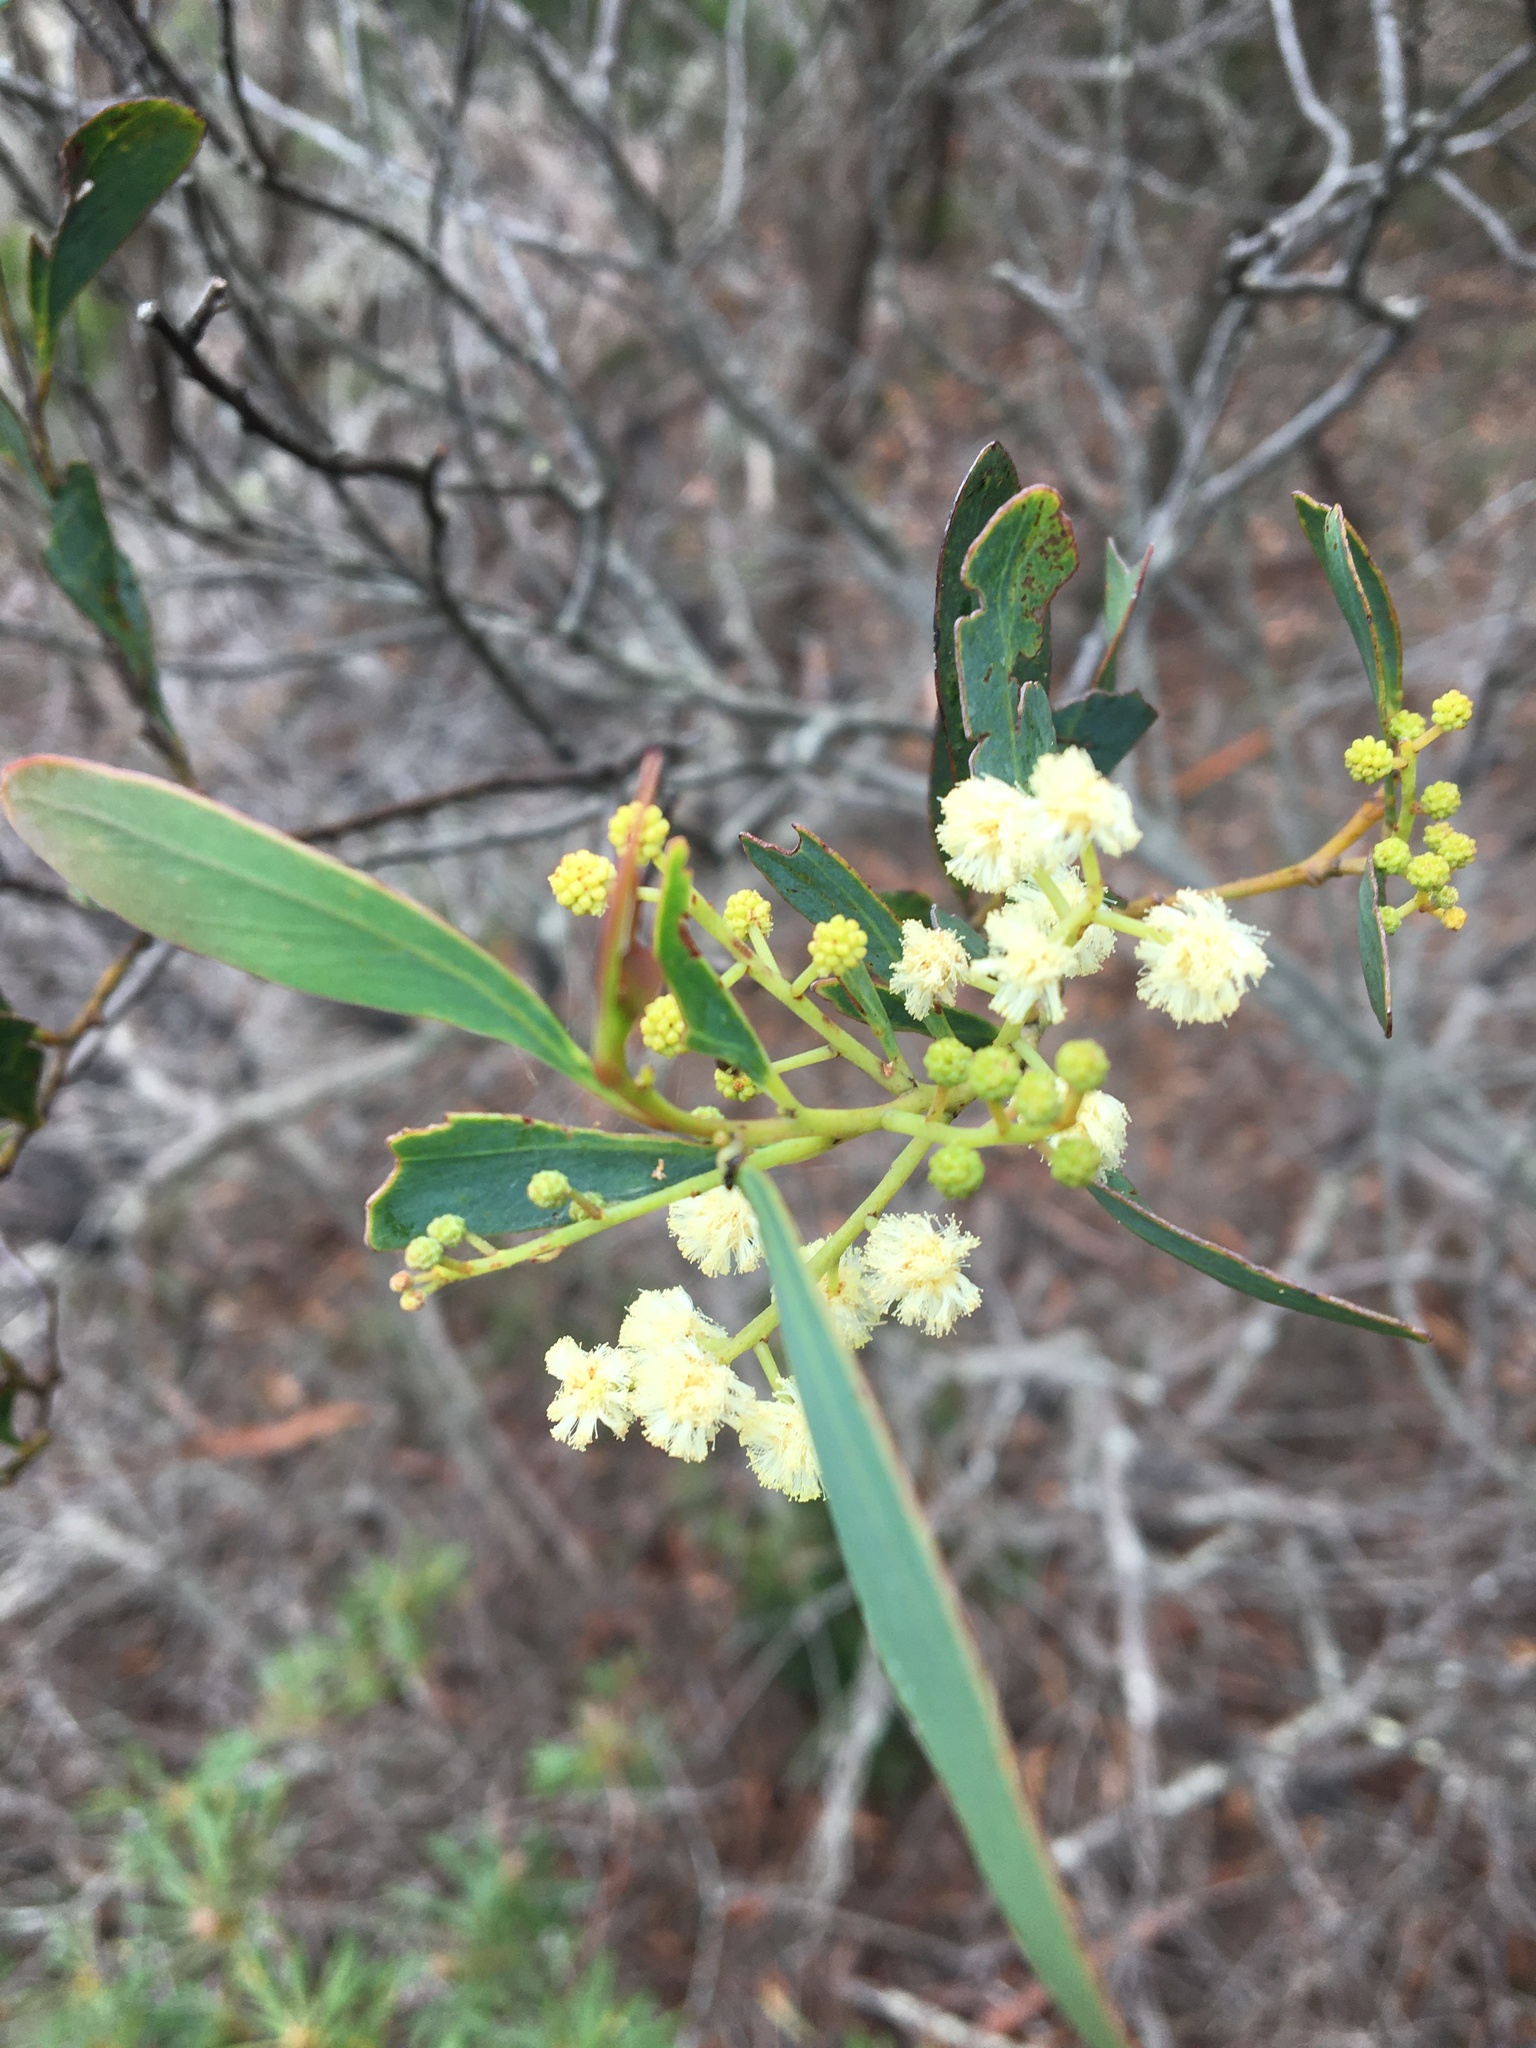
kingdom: Plantae
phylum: Tracheophyta
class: Magnoliopsida
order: Fabales
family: Fabaceae
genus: Acacia
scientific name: Acacia penninervis
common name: Hickory wattle
